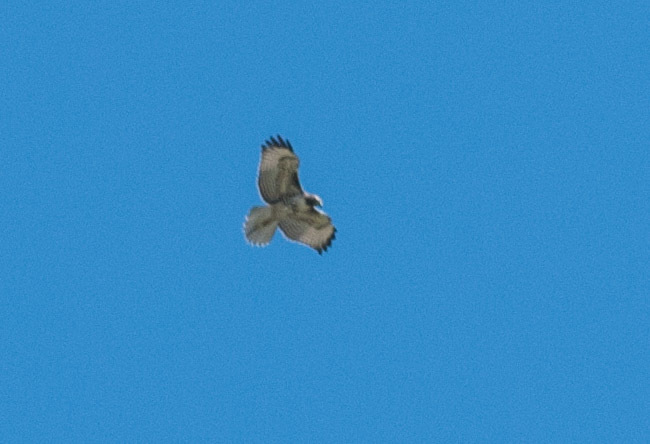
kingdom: Animalia
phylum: Chordata
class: Aves
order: Accipitriformes
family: Accipitridae
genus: Buteo
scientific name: Buteo jamaicensis
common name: Red-tailed hawk
